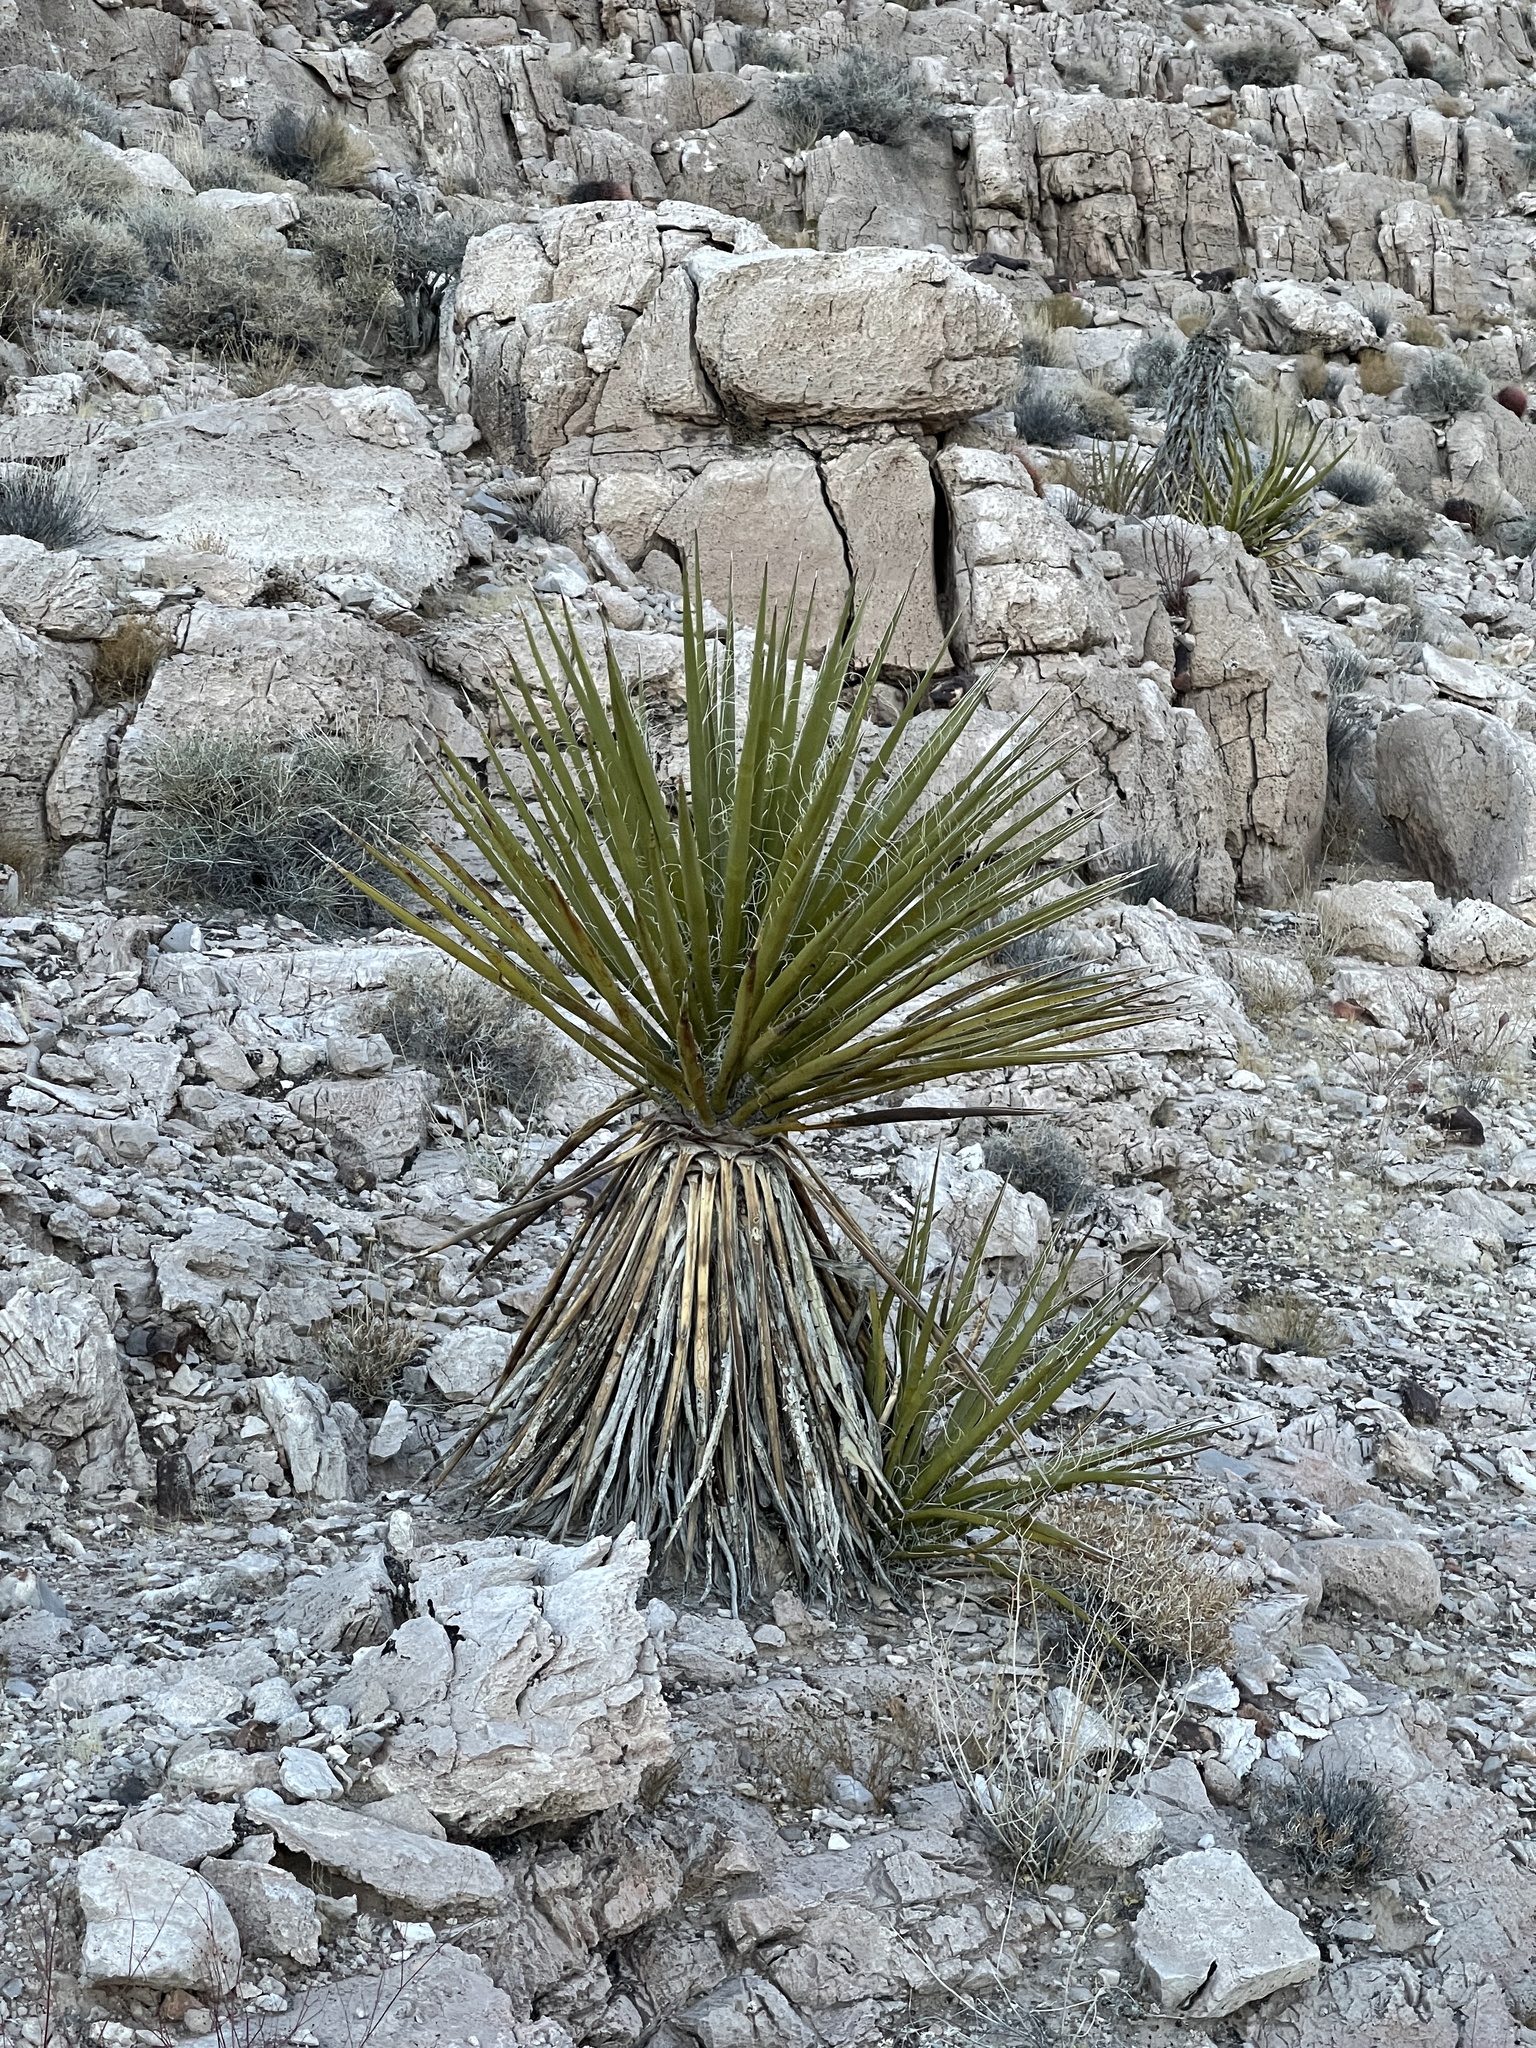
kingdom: Plantae
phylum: Tracheophyta
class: Liliopsida
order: Asparagales
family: Asparagaceae
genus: Yucca
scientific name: Yucca schidigera
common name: Mojave yucca
